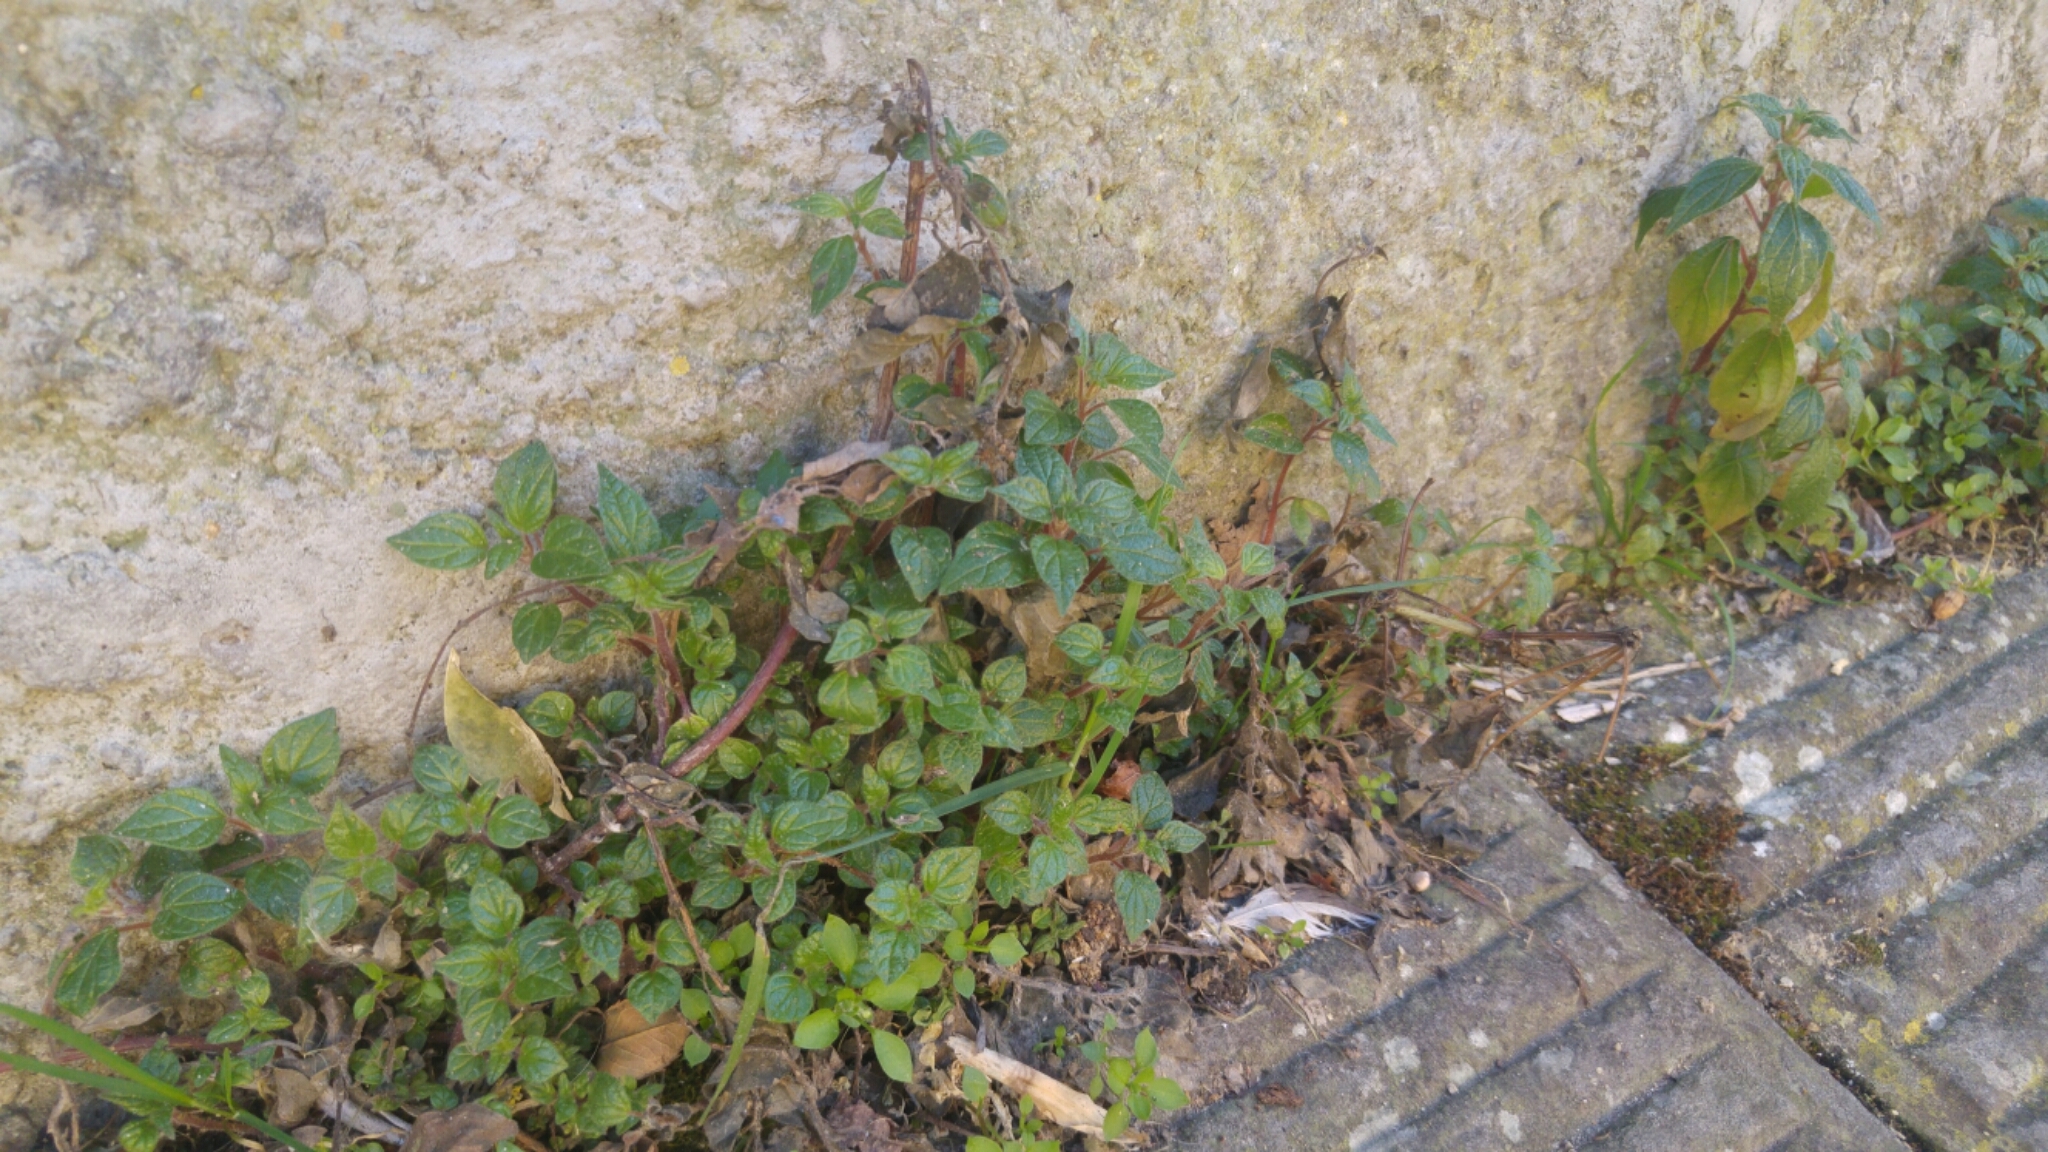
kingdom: Plantae
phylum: Tracheophyta
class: Magnoliopsida
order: Rosales
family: Urticaceae
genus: Parietaria
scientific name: Parietaria judaica
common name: Pellitory-of-the-wall
